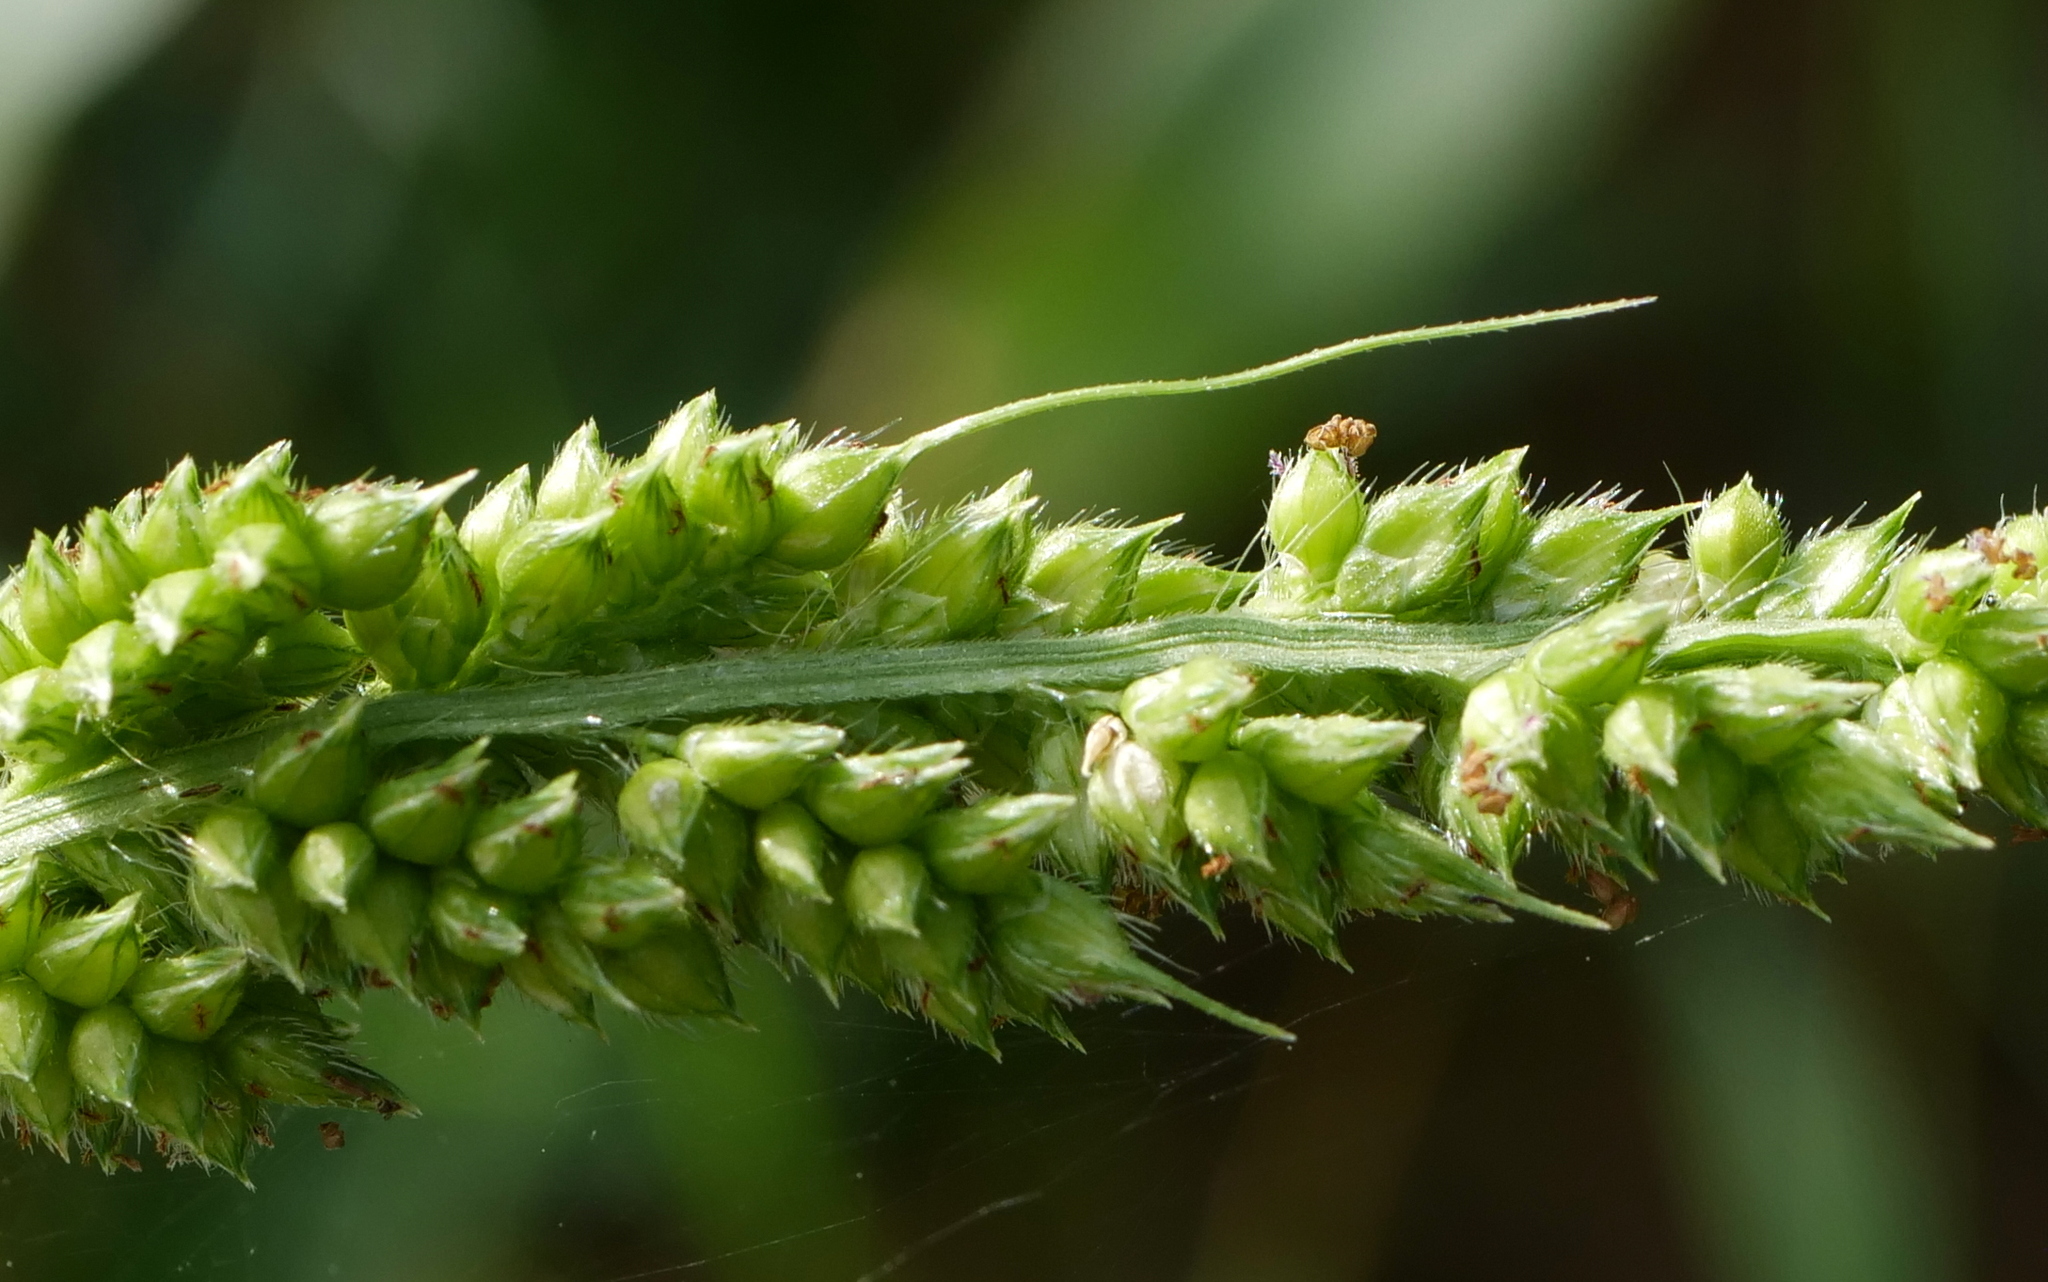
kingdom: Plantae
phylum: Tracheophyta
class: Liliopsida
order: Poales
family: Poaceae
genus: Echinochloa
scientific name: Echinochloa crus-galli
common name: Cockspur
